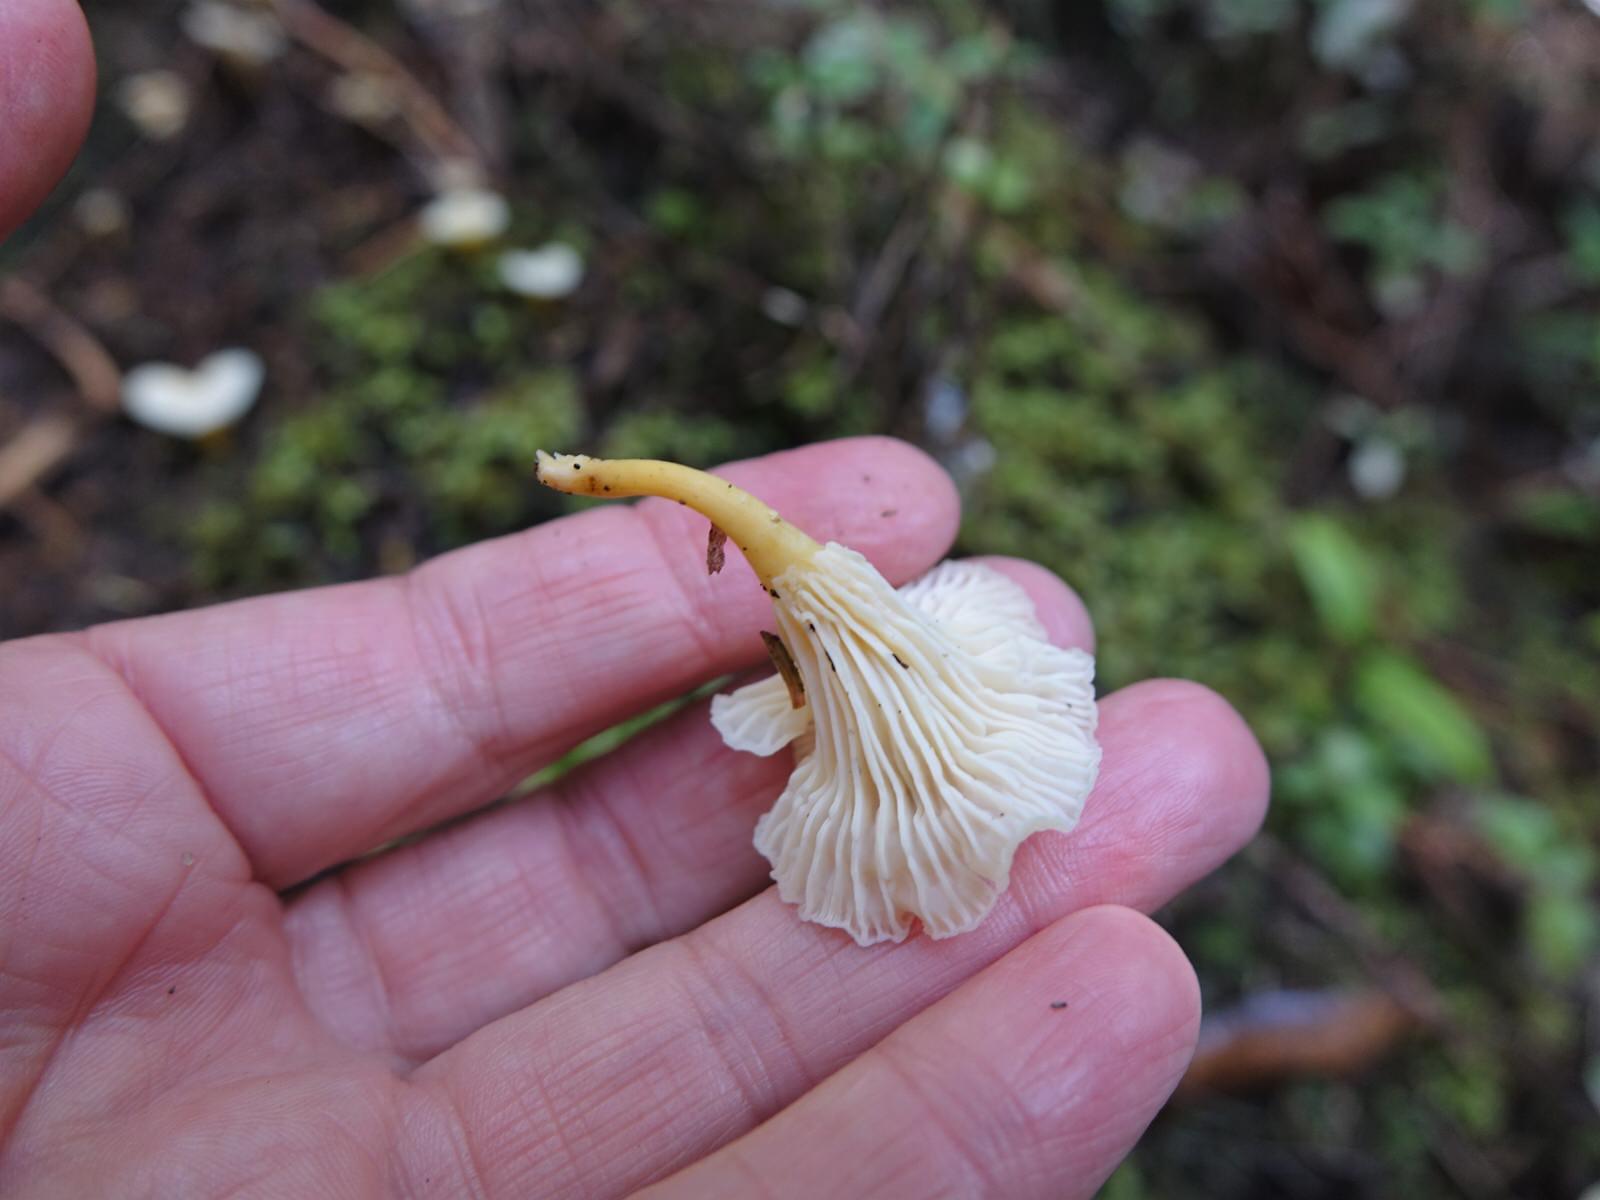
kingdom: Fungi
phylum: Basidiomycota
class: Agaricomycetes
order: Cantharellales
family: Hydnaceae
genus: Cantharellus
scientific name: Cantharellus wellingtonensis
